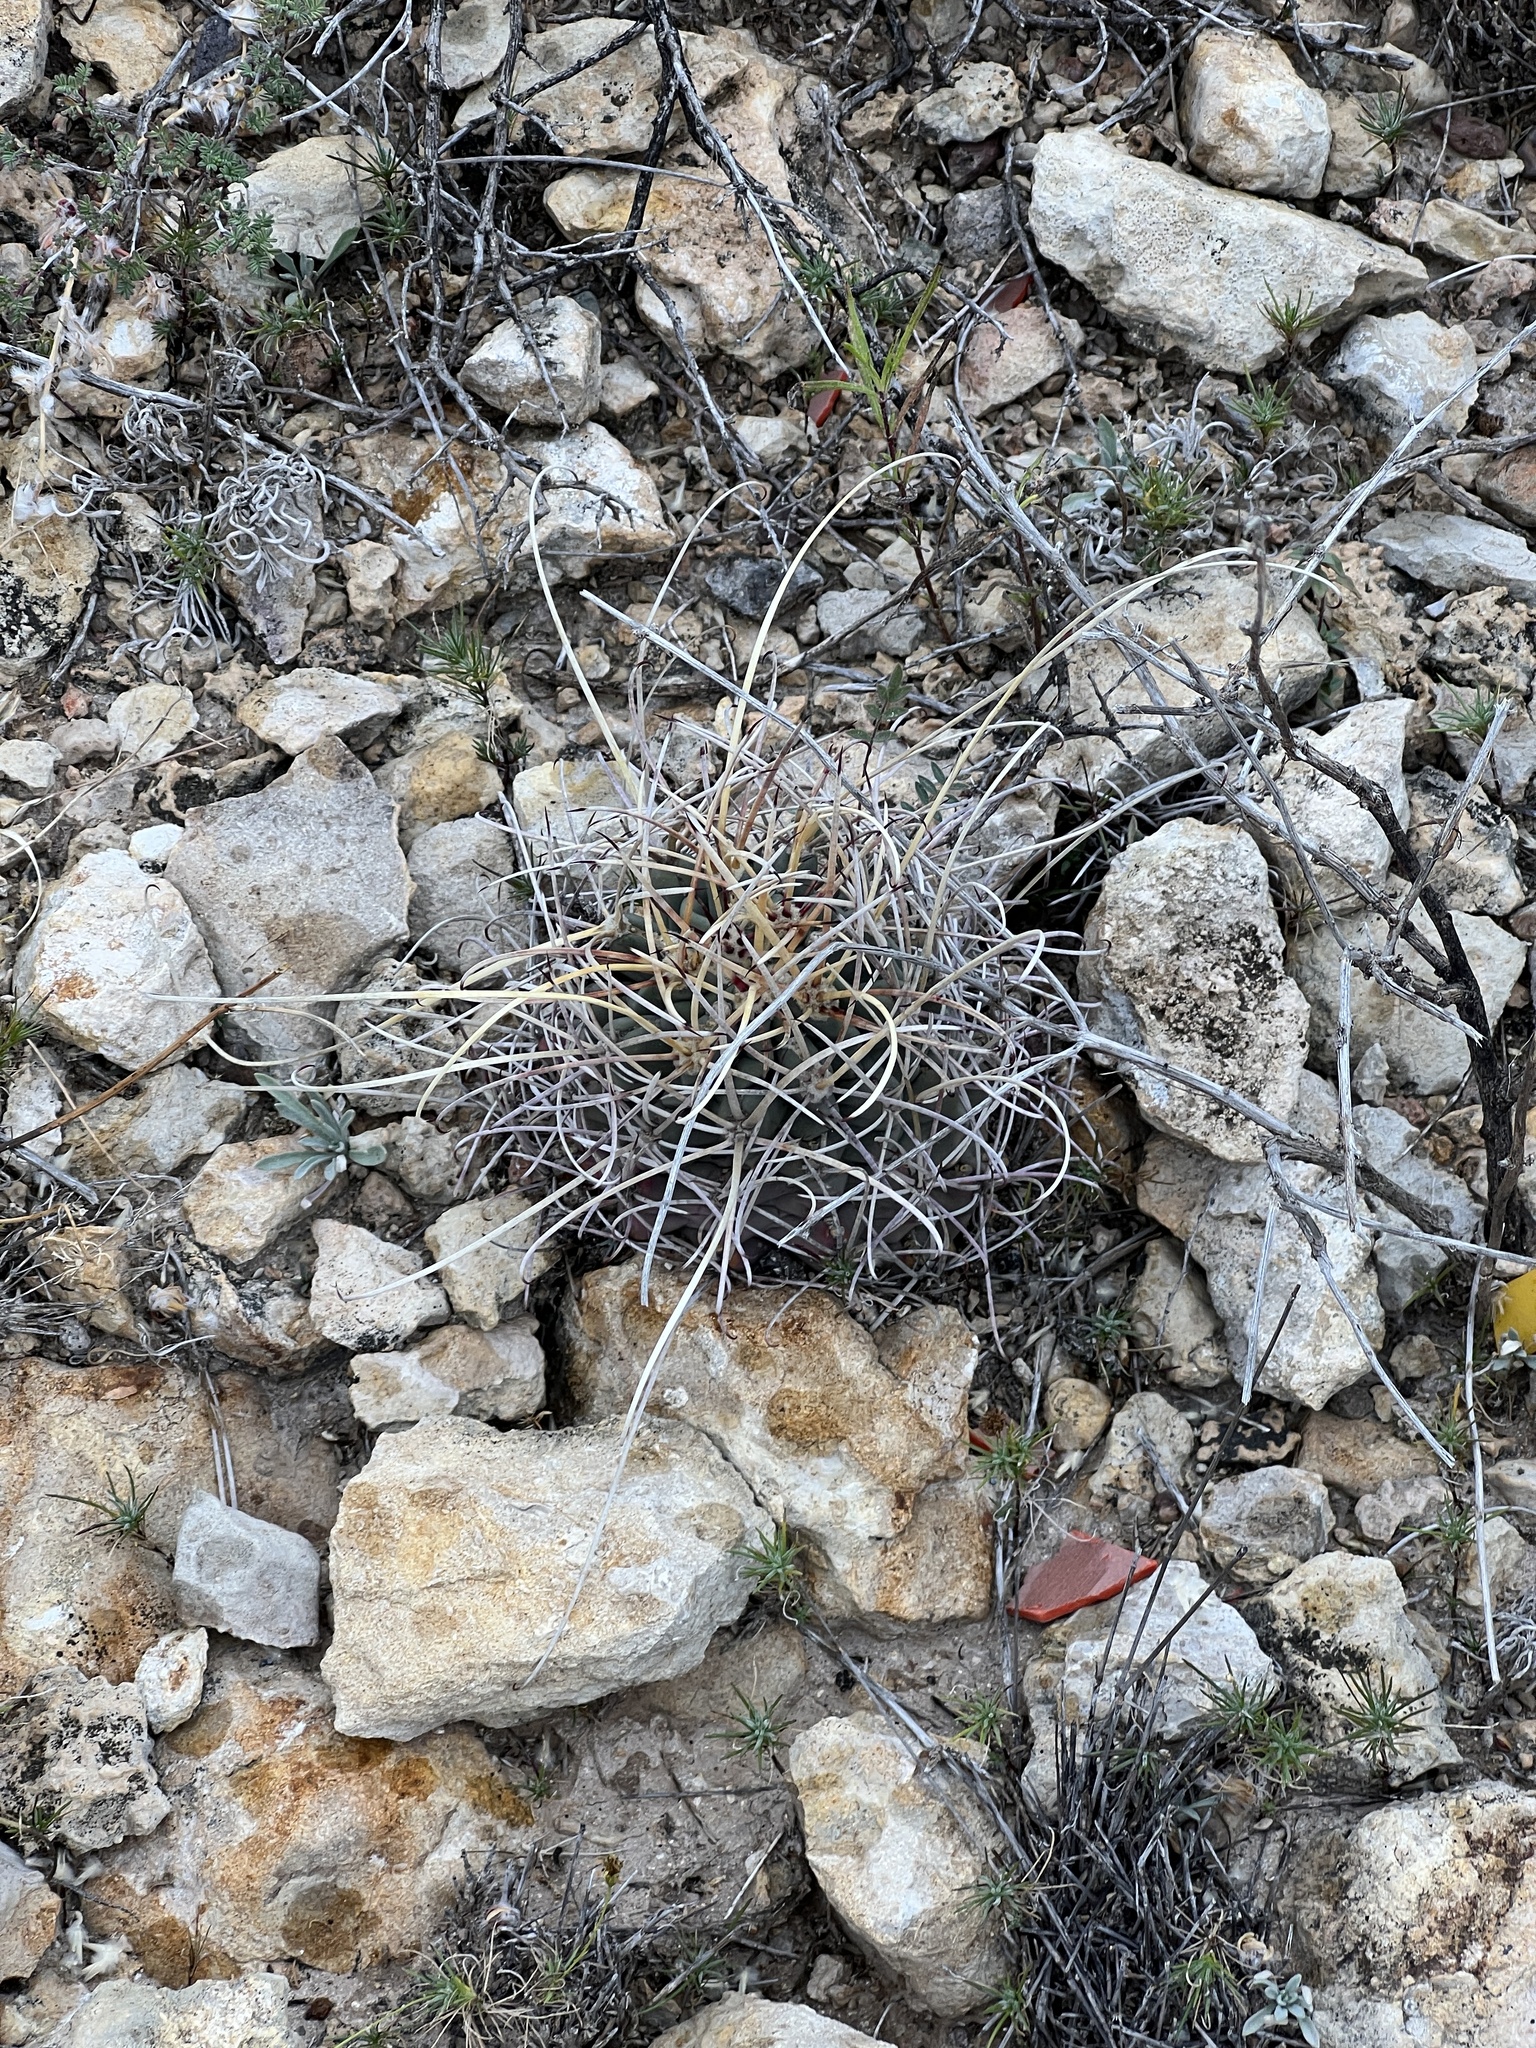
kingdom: Plantae
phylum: Tracheophyta
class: Magnoliopsida
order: Caryophyllales
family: Cactaceae
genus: Ferocactus
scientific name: Ferocactus uncinatus
